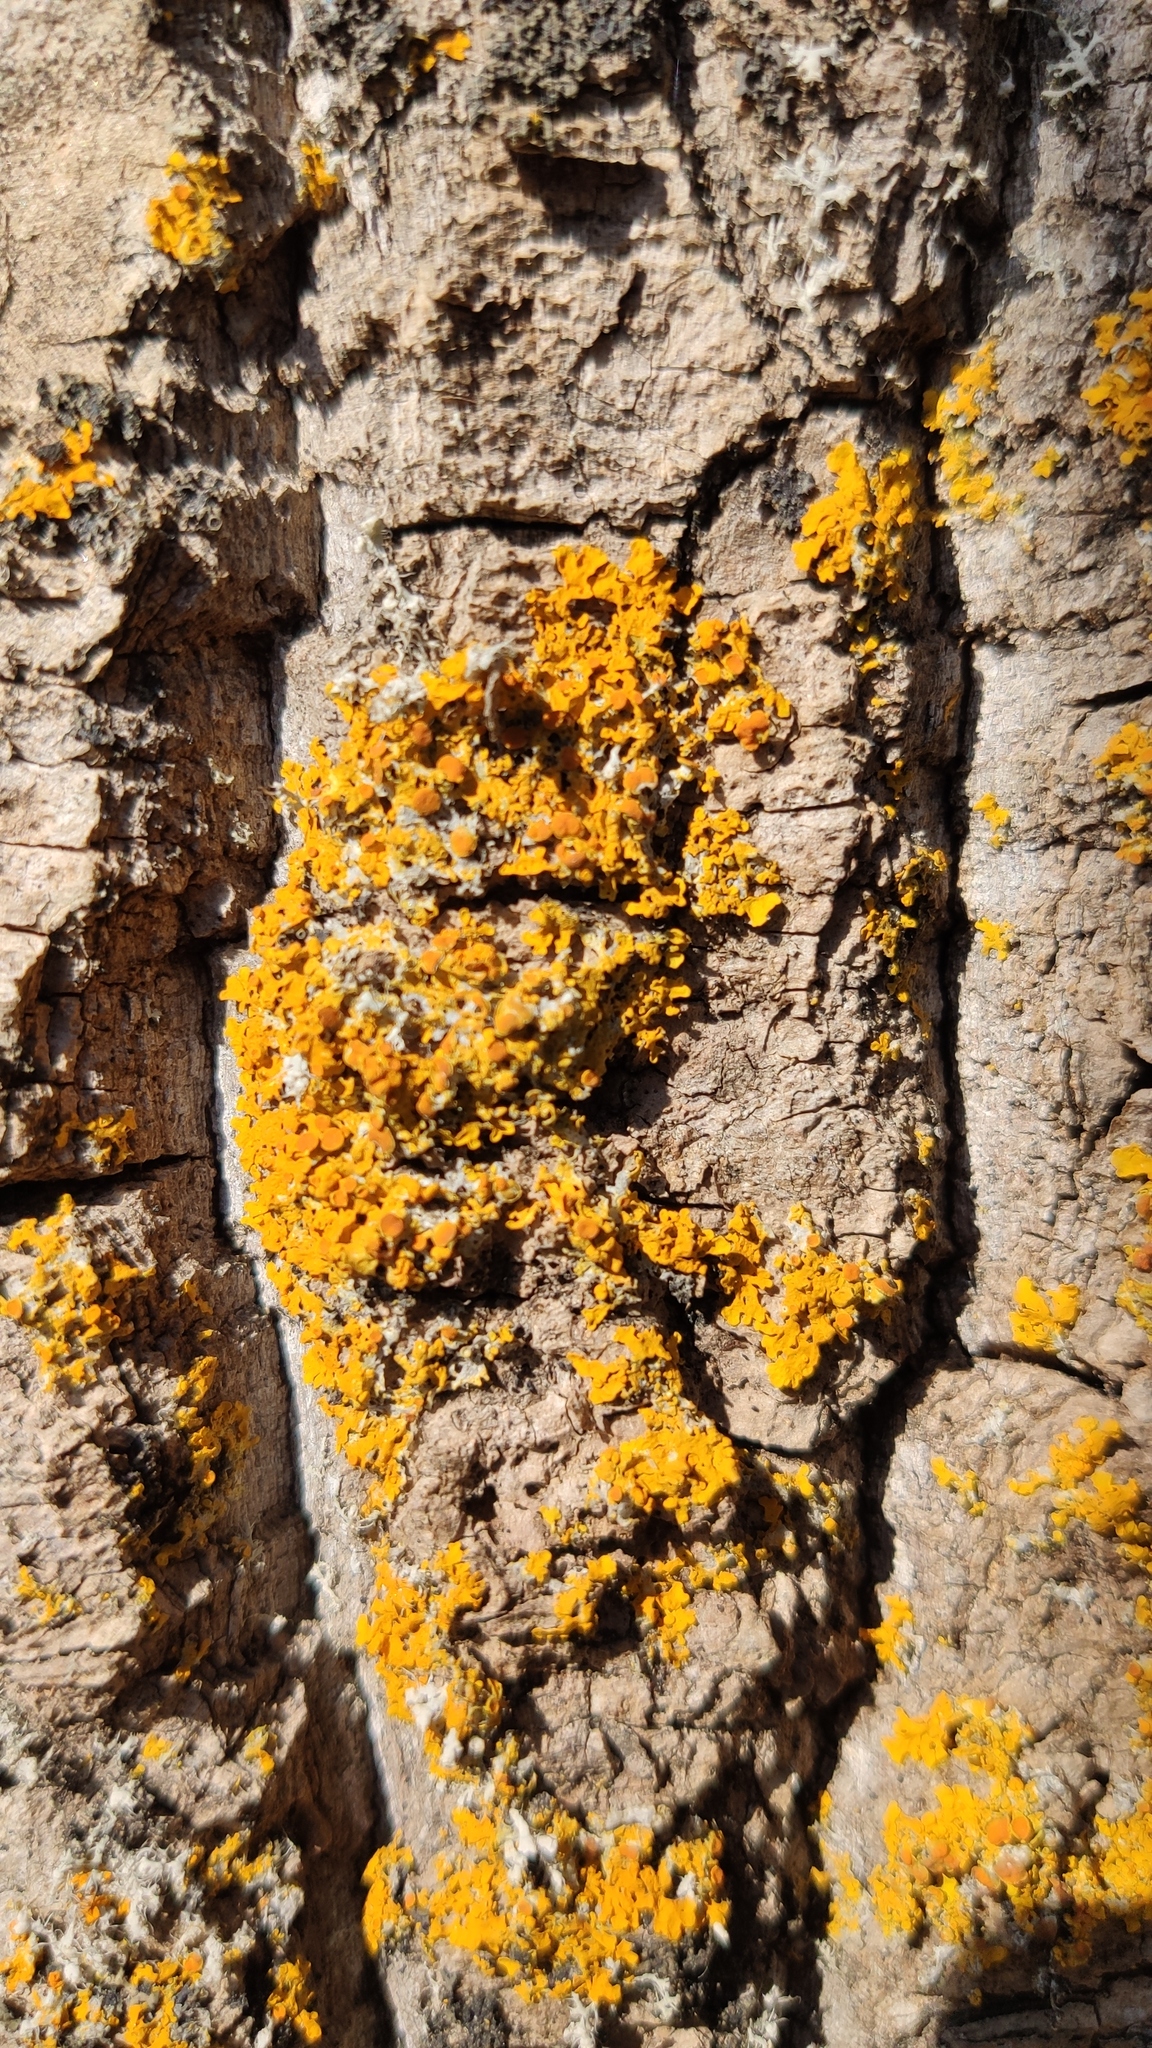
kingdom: Fungi
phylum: Ascomycota
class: Lecanoromycetes
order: Teloschistales
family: Teloschistaceae
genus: Xanthoria
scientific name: Xanthoria parietina
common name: Common orange lichen
